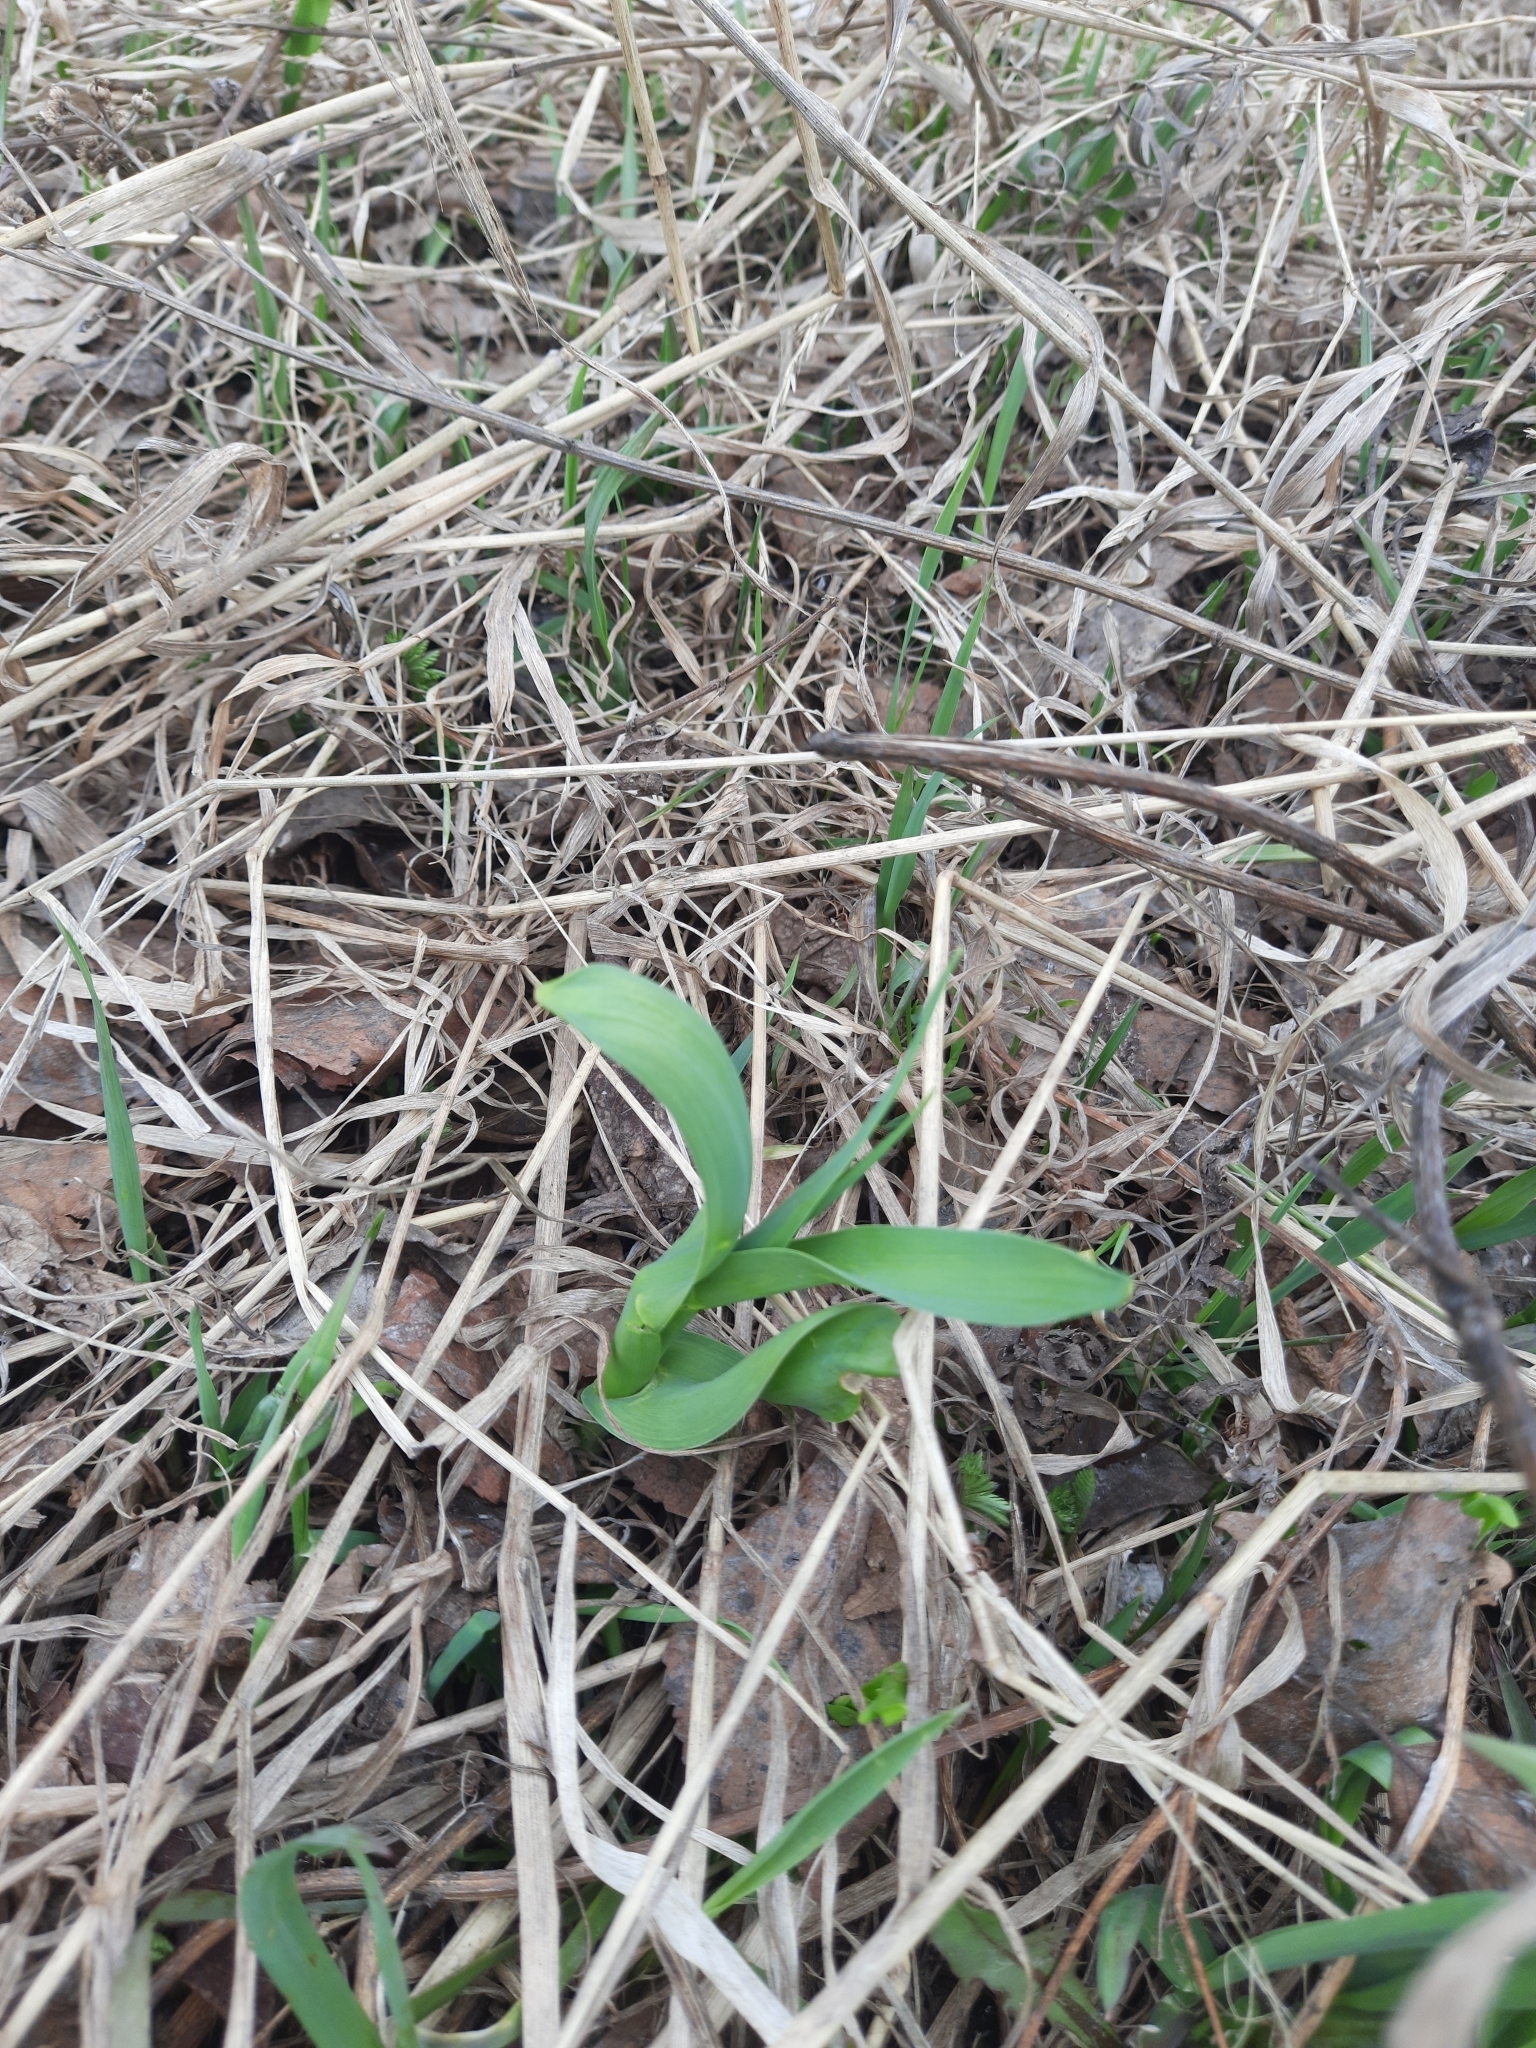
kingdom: Plantae
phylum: Tracheophyta
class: Liliopsida
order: Asparagales
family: Amaryllidaceae
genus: Allium
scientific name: Allium obliquum
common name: Oblique onion
